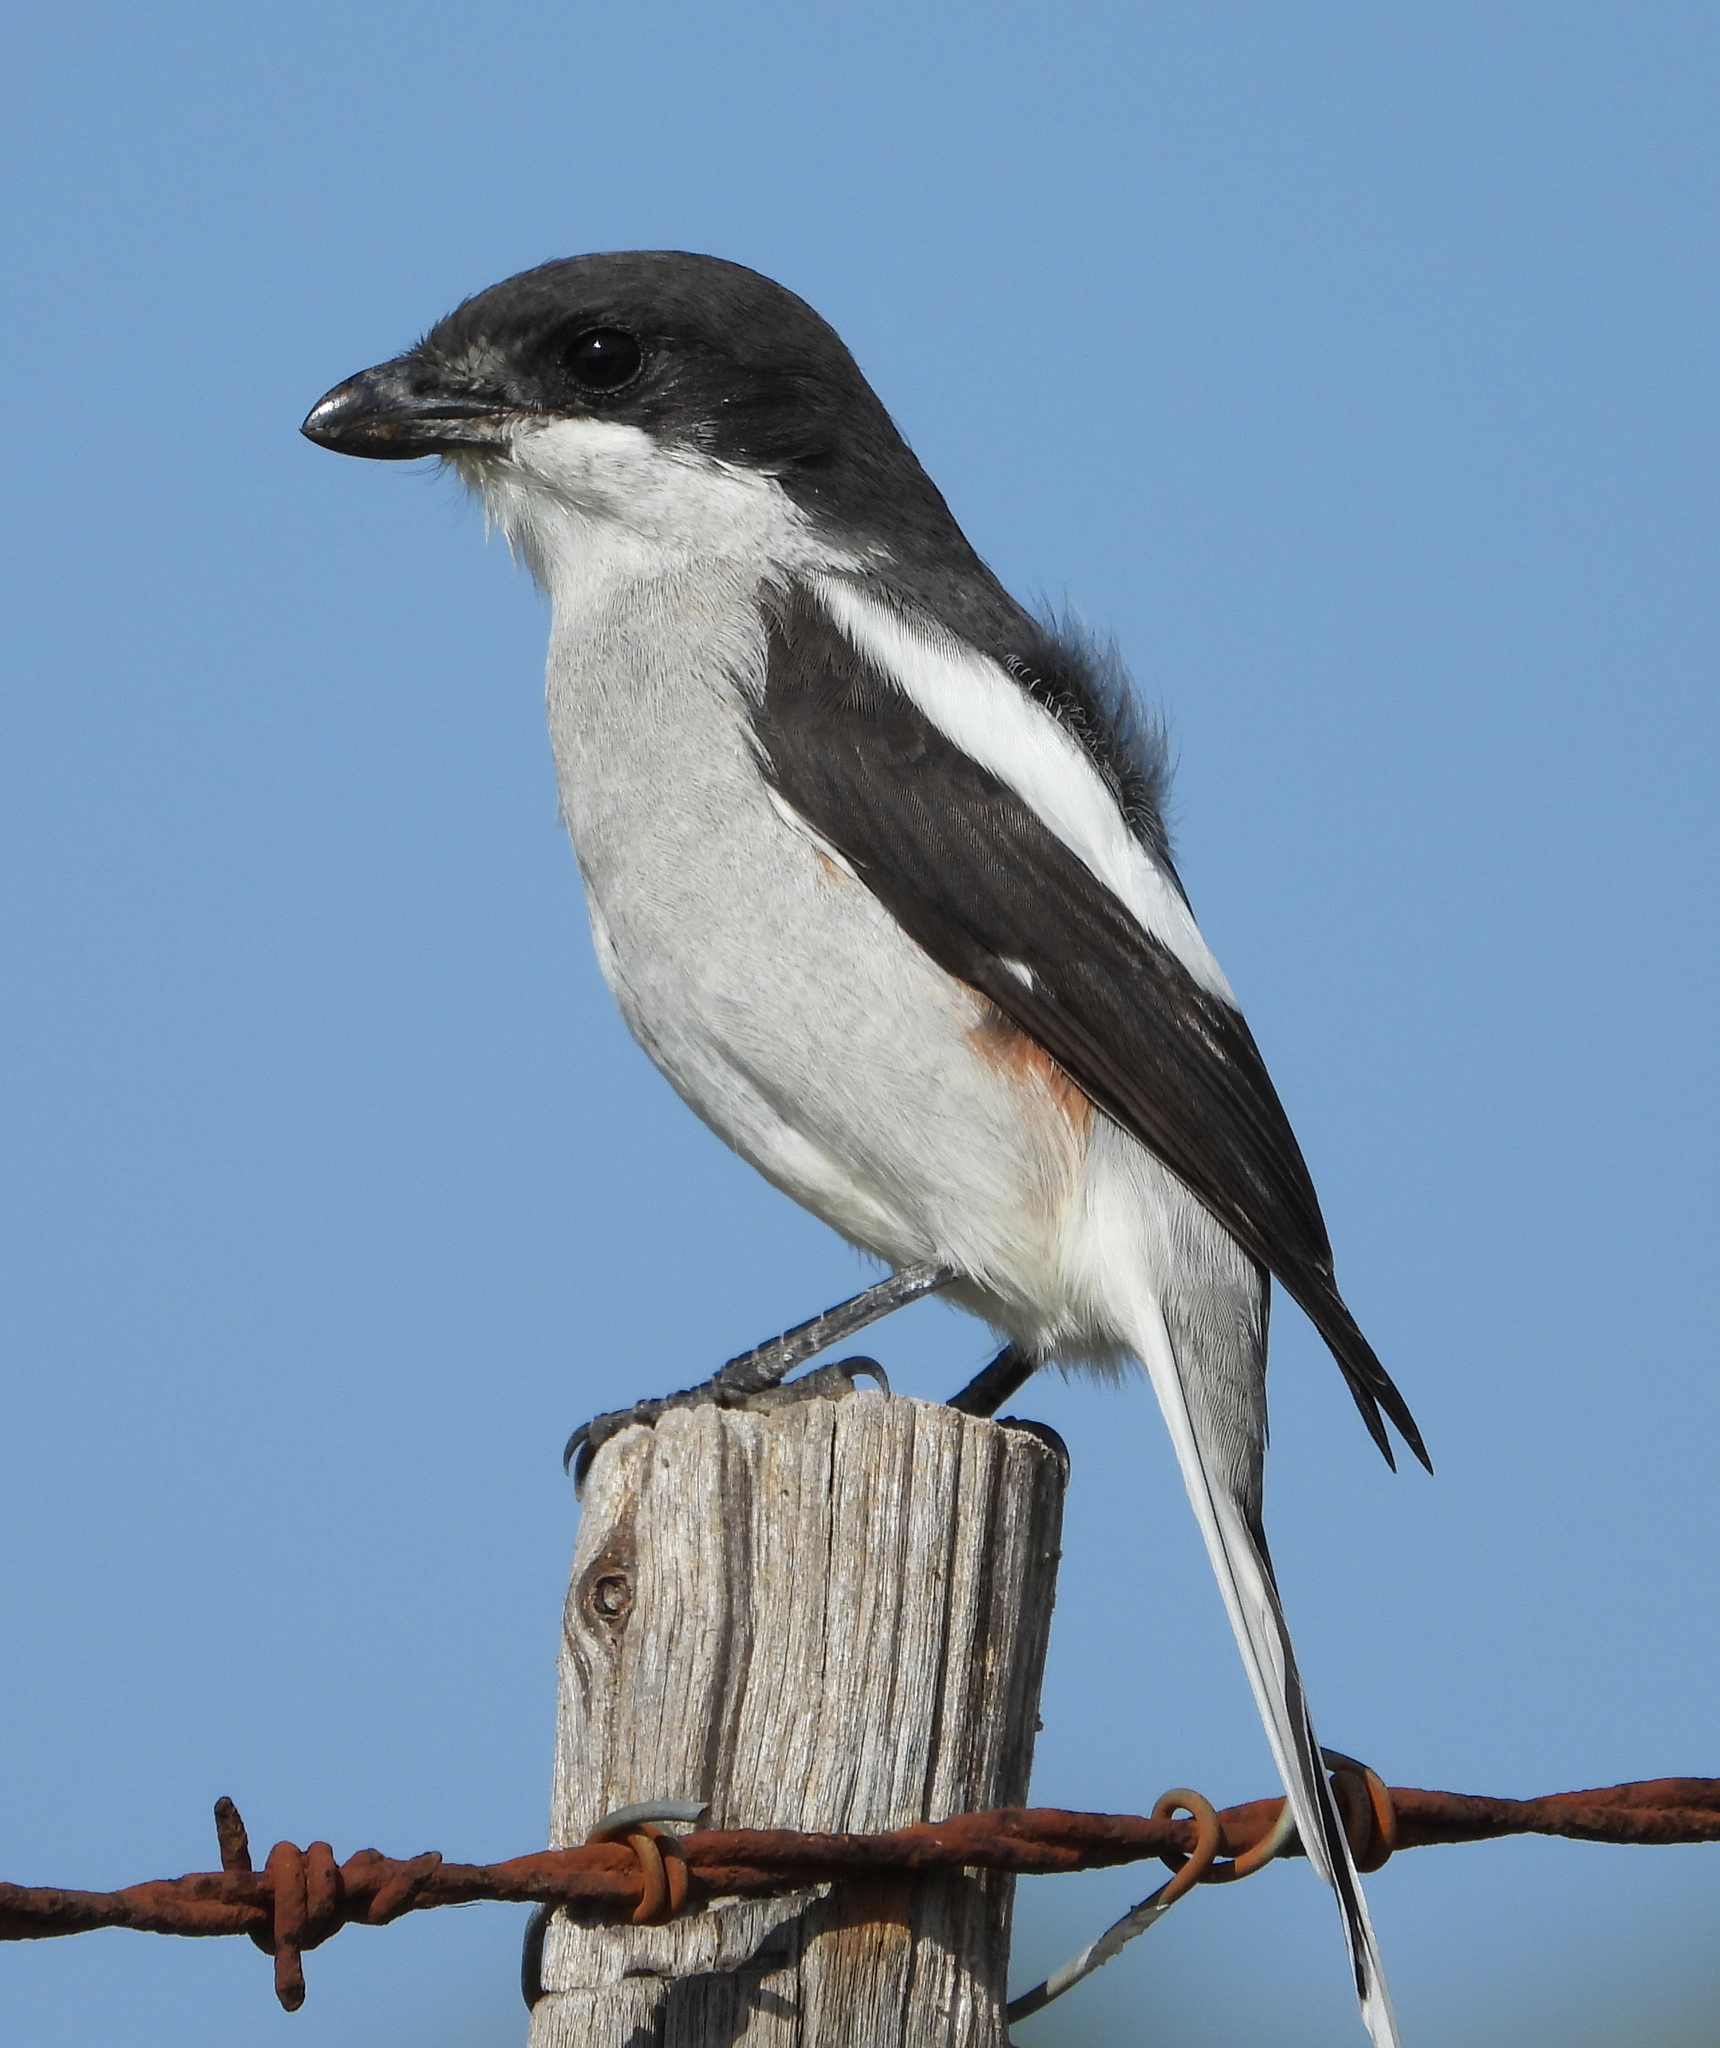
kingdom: Animalia
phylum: Chordata
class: Aves
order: Passeriformes
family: Laniidae
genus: Lanius
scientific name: Lanius collaris
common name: Southern fiscal
